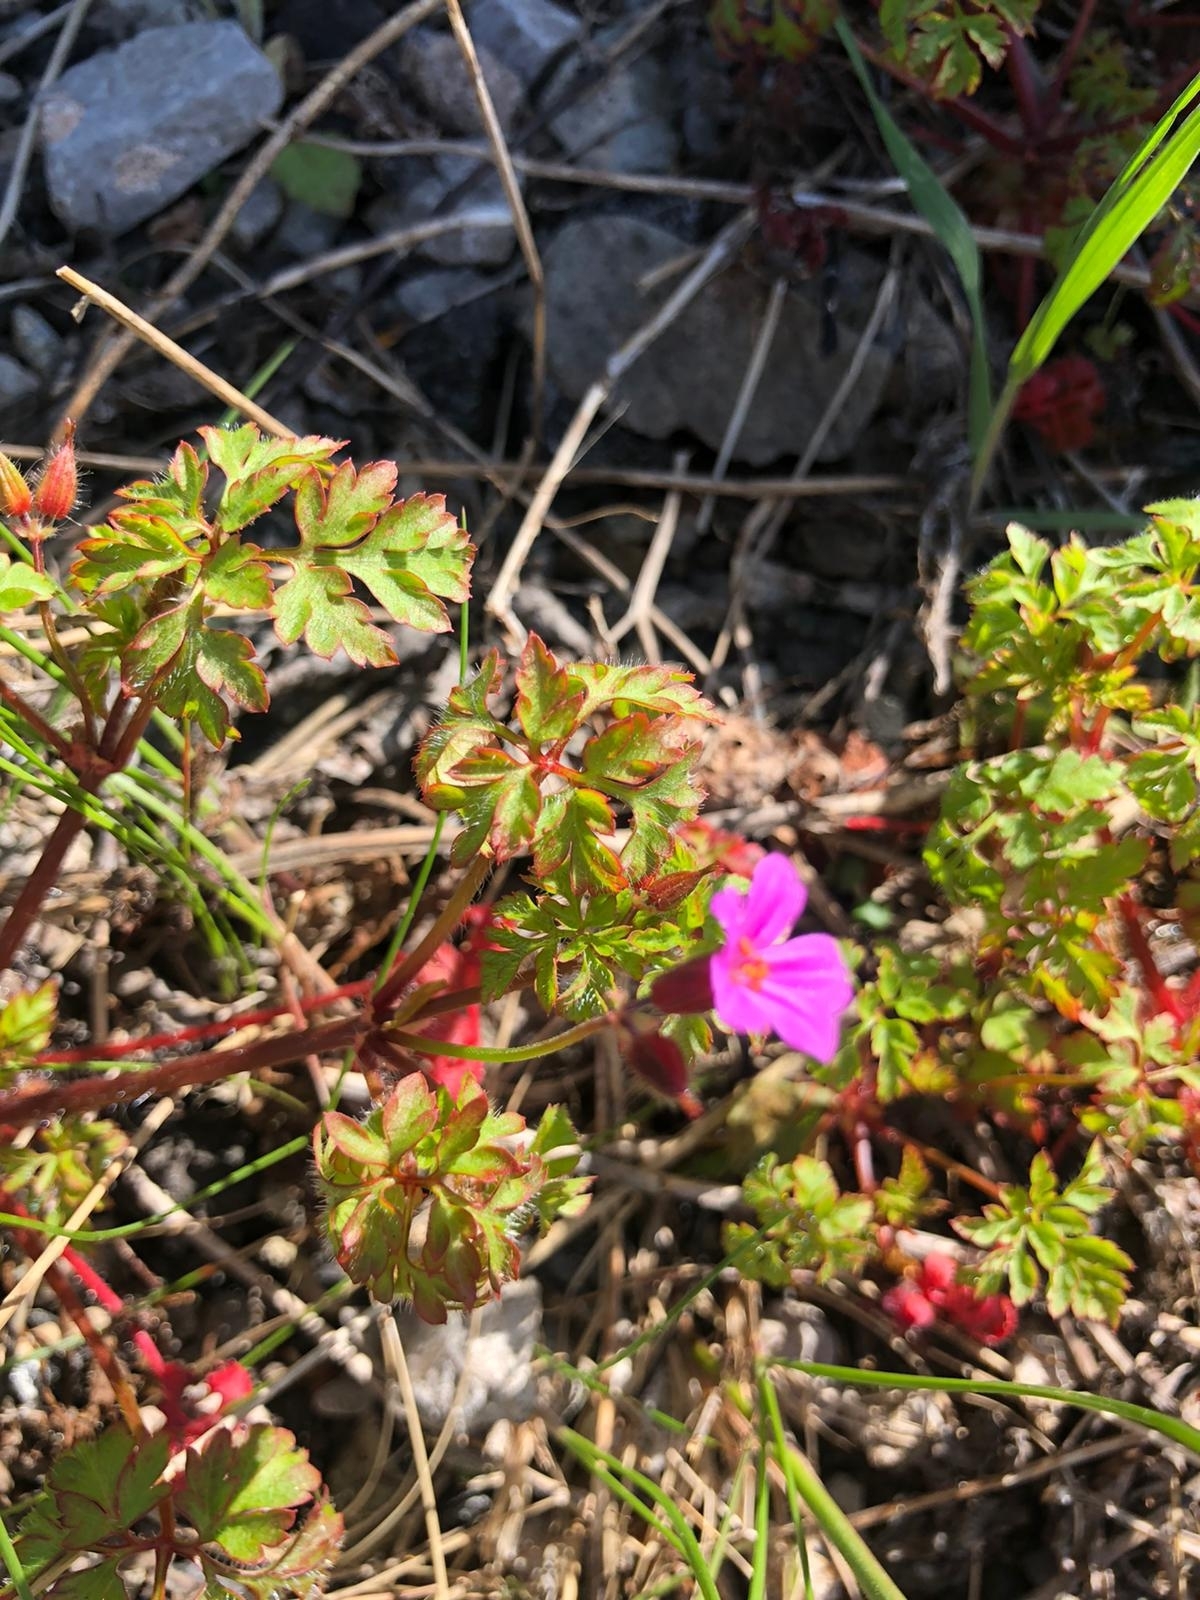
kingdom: Plantae
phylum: Tracheophyta
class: Magnoliopsida
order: Geraniales
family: Geraniaceae
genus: Geranium
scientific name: Geranium robertianum
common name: Herb-robert
